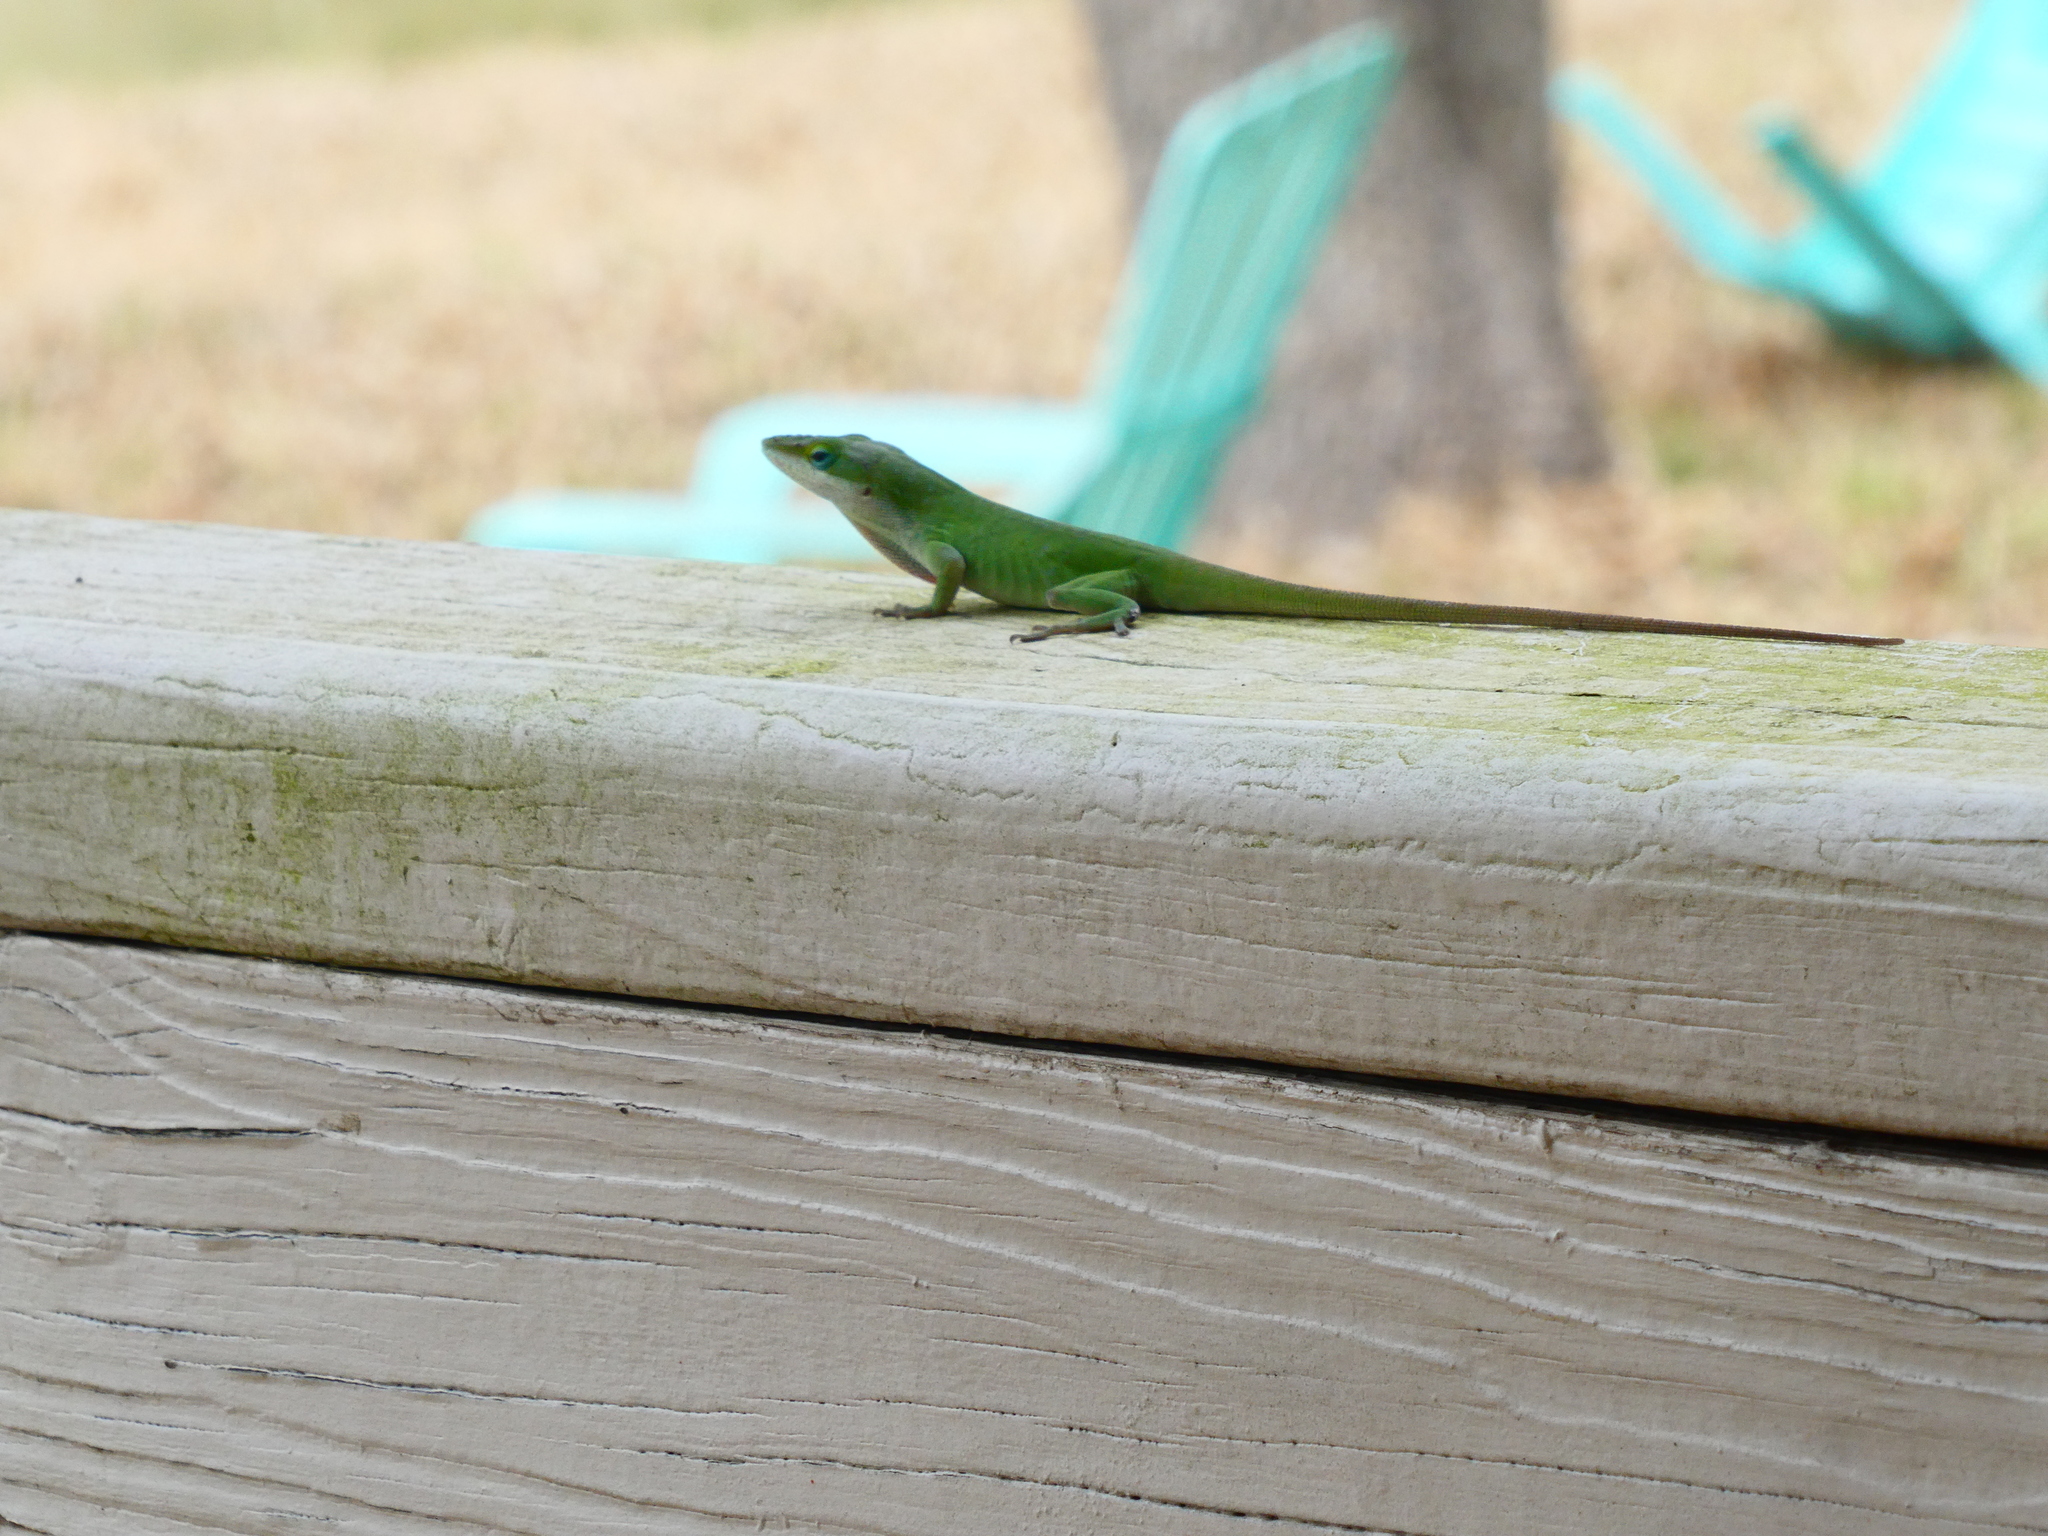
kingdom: Animalia
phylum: Chordata
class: Squamata
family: Dactyloidae
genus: Anolis
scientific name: Anolis carolinensis
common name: Green anole
